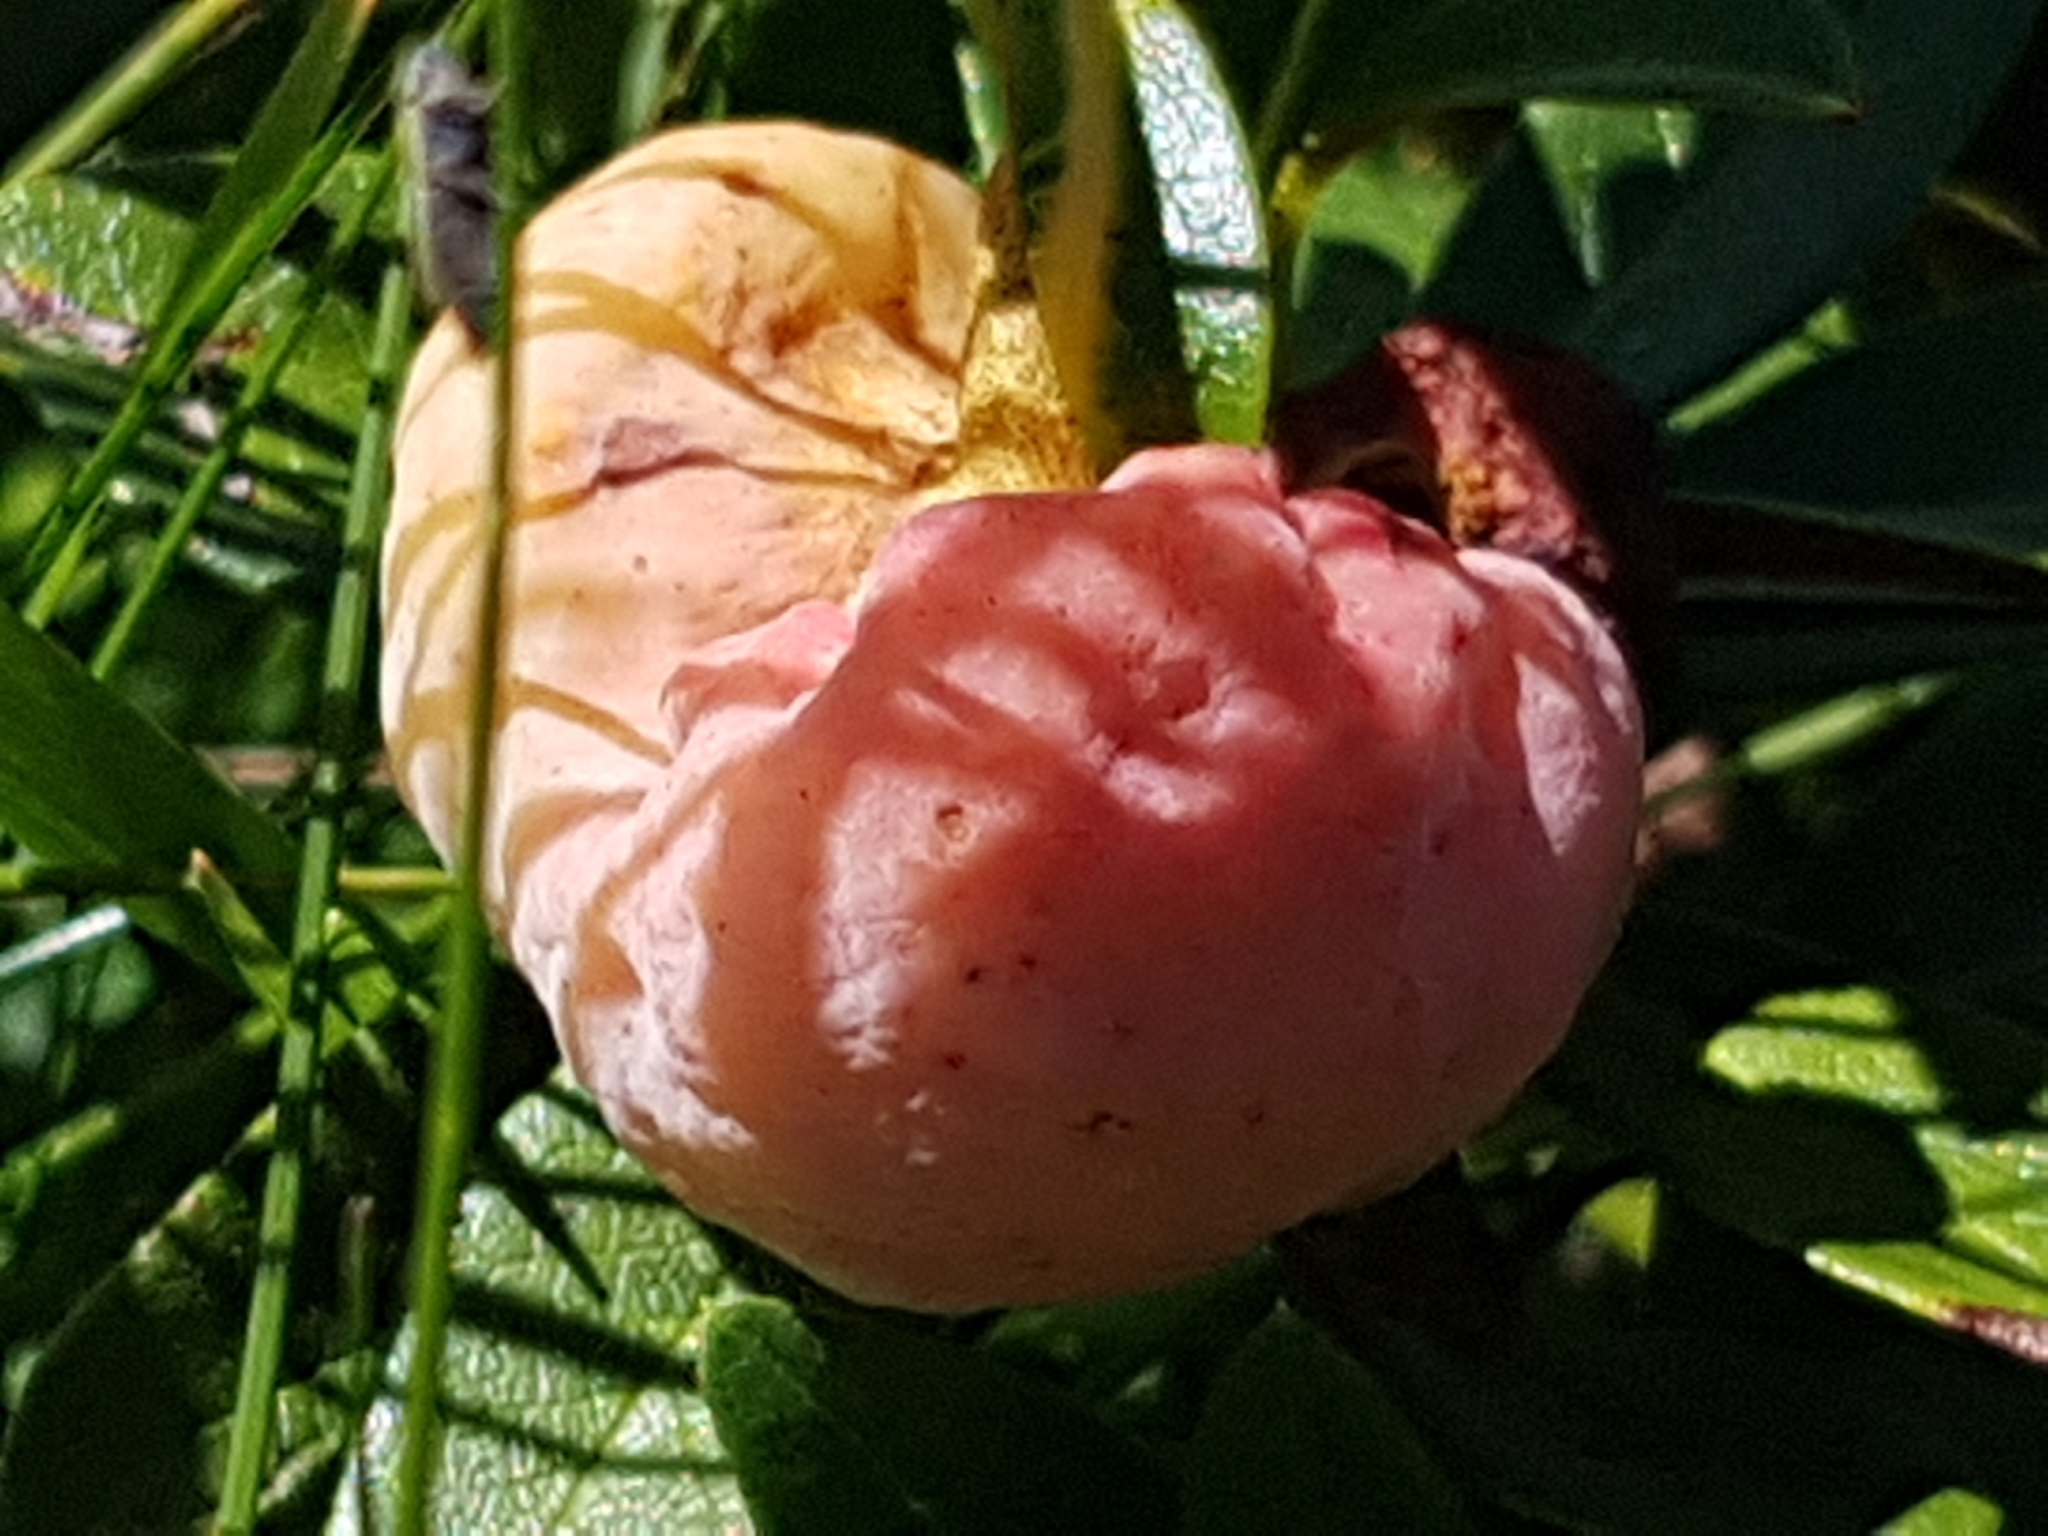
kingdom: Fungi
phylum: Basidiomycota
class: Exobasidiomycetes
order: Exobasidiales
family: Exobasidiaceae
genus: Exobasidium
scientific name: Exobasidium rhododendri
